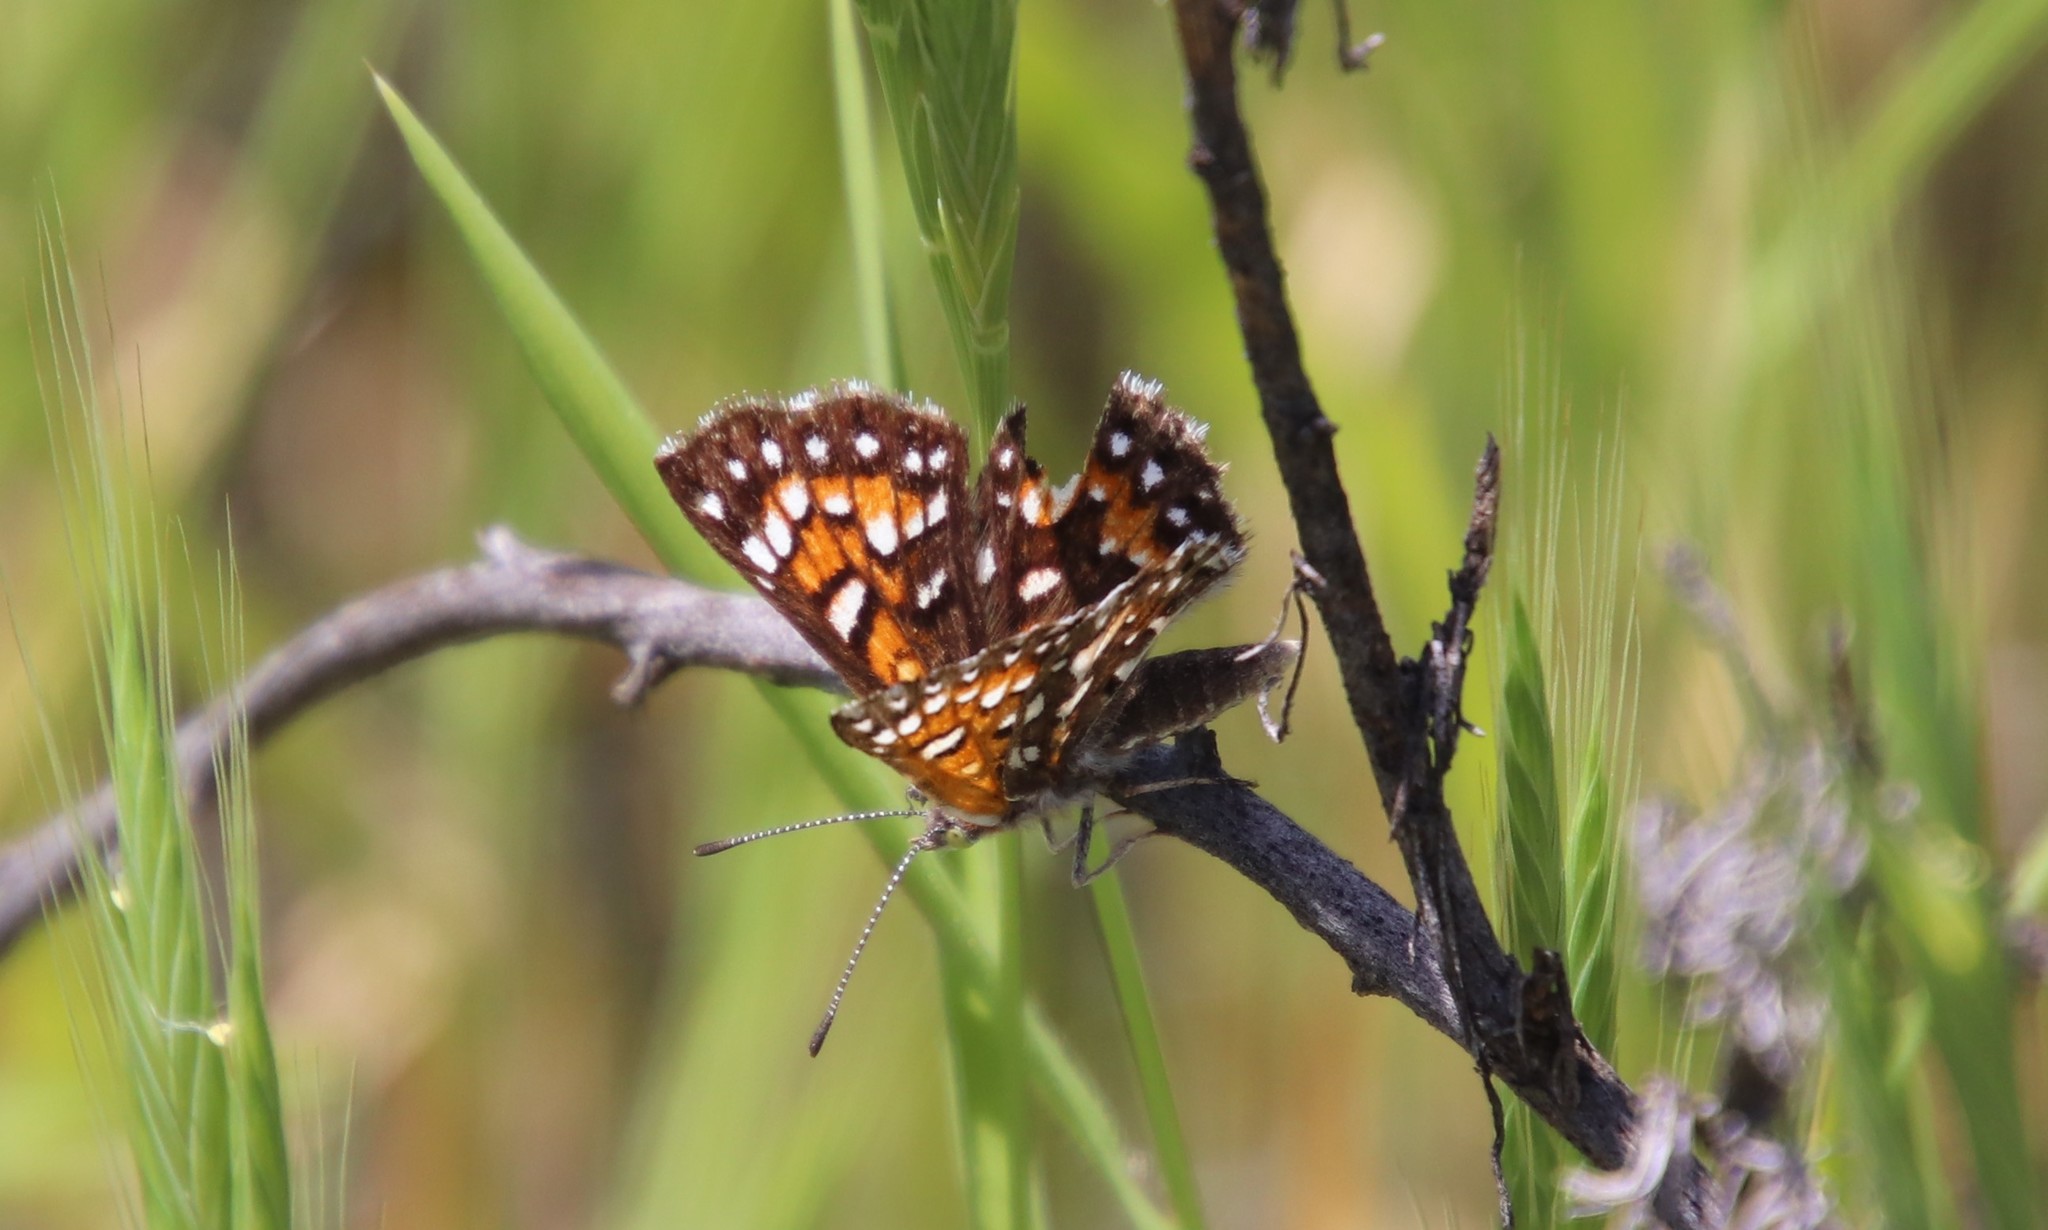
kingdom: Animalia
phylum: Arthropoda
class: Insecta
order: Lepidoptera
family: Riodinidae
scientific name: Riodinidae
